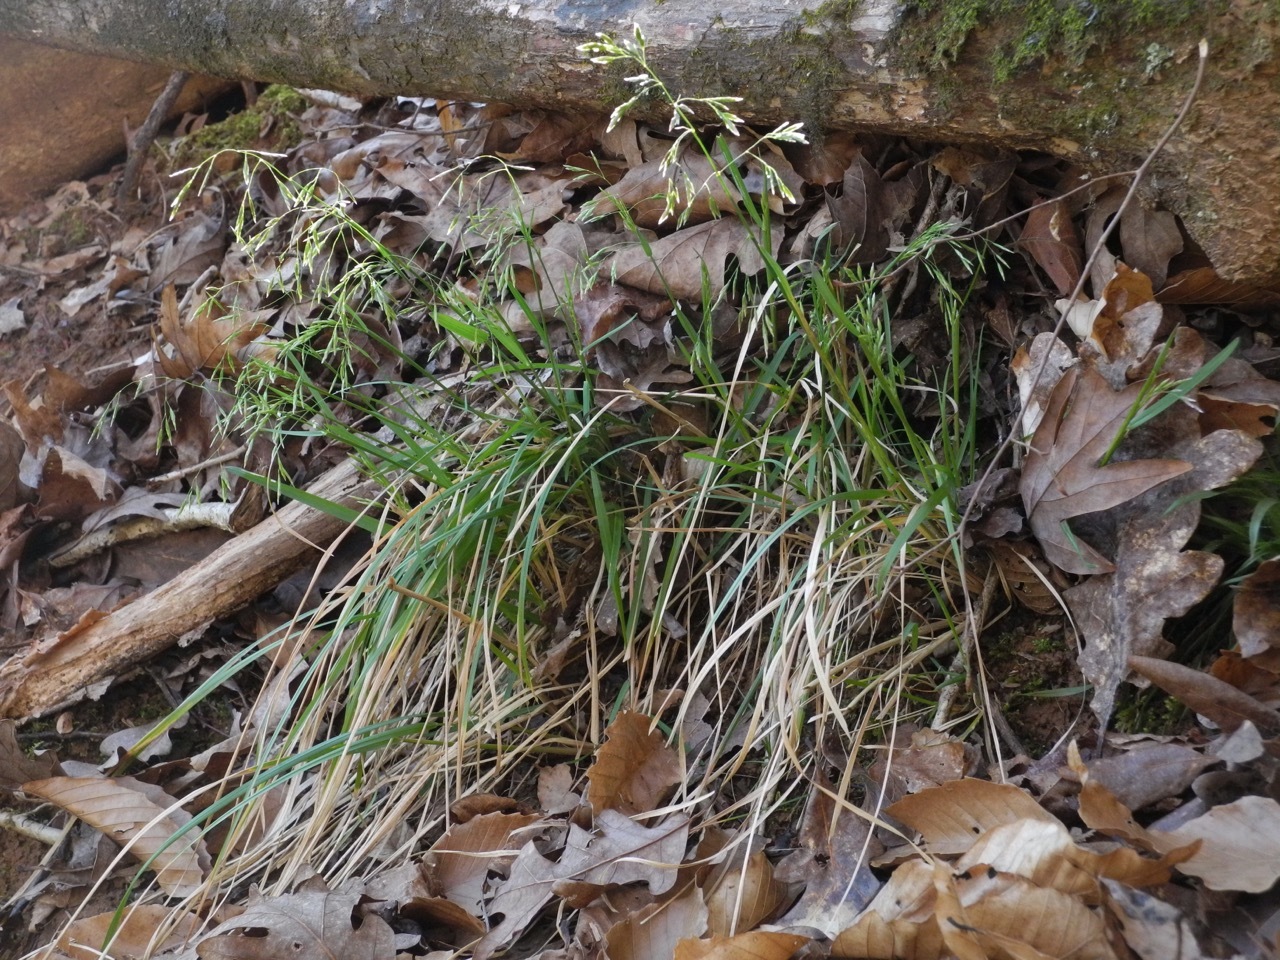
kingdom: Plantae
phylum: Tracheophyta
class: Liliopsida
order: Poales
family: Poaceae
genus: Poa
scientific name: Poa autumnalis
